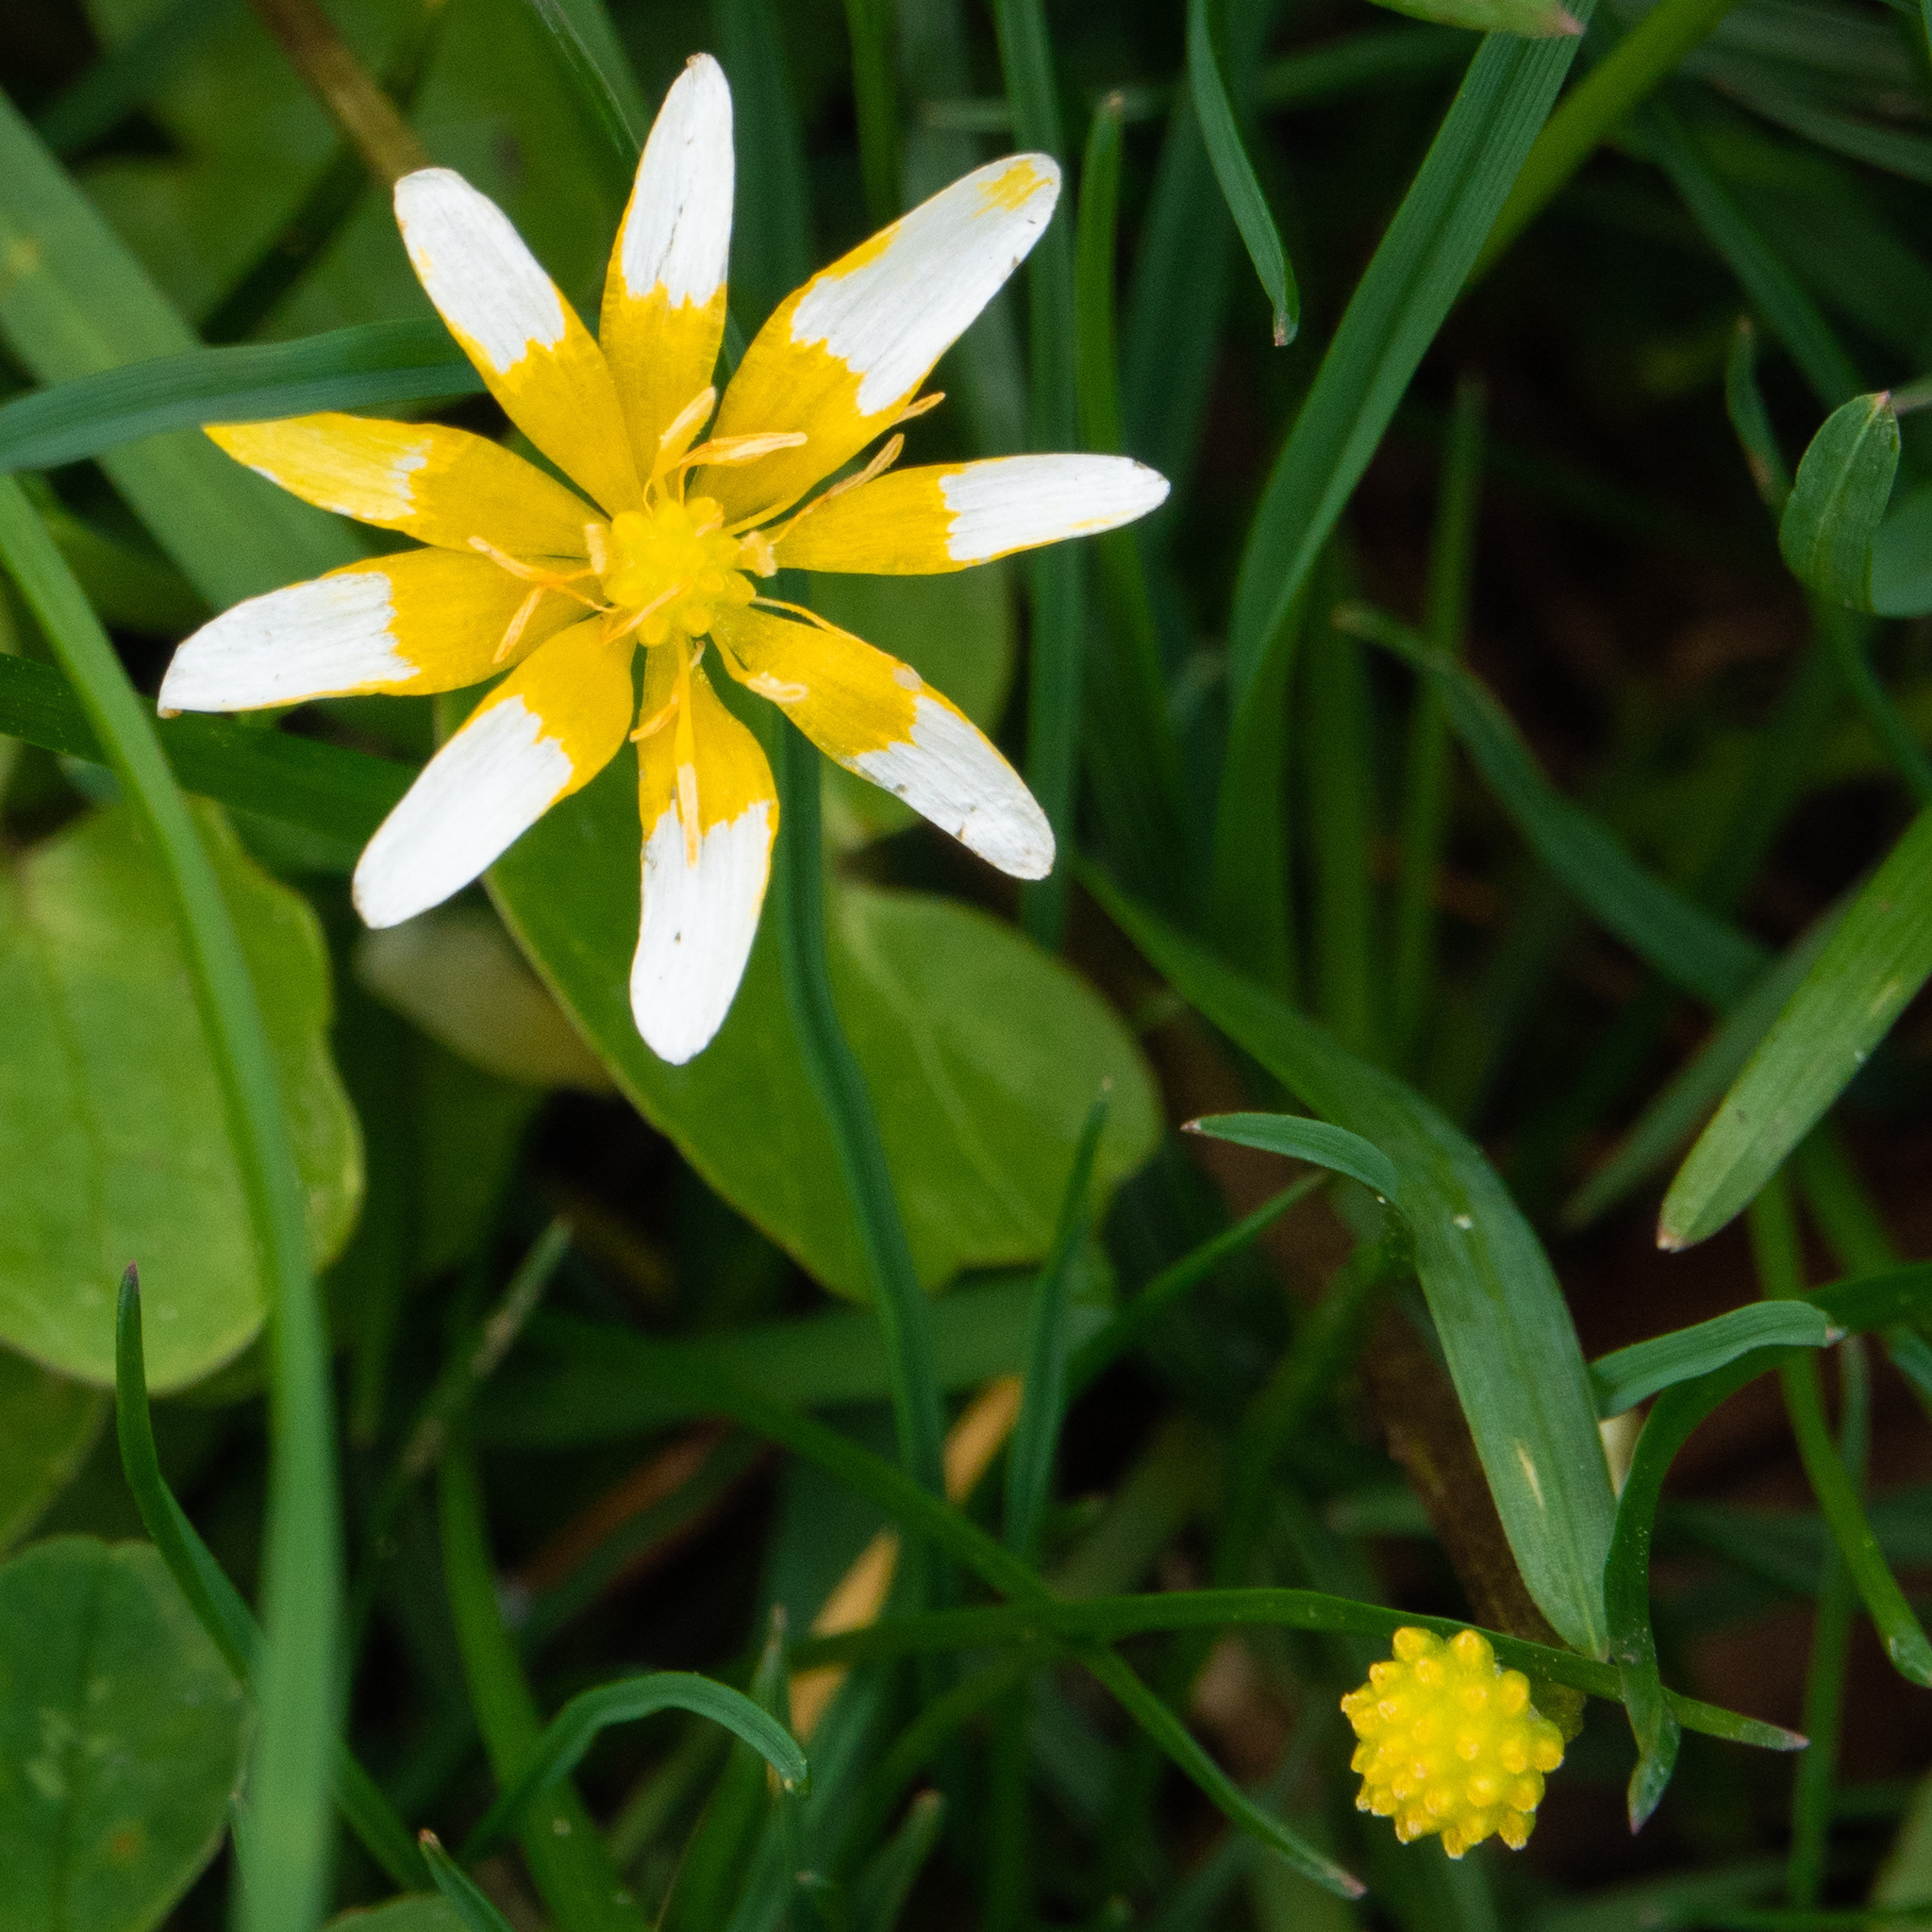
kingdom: Plantae
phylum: Tracheophyta
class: Magnoliopsida
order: Ranunculales
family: Ranunculaceae
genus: Ficaria
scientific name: Ficaria verna
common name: Lesser celandine
